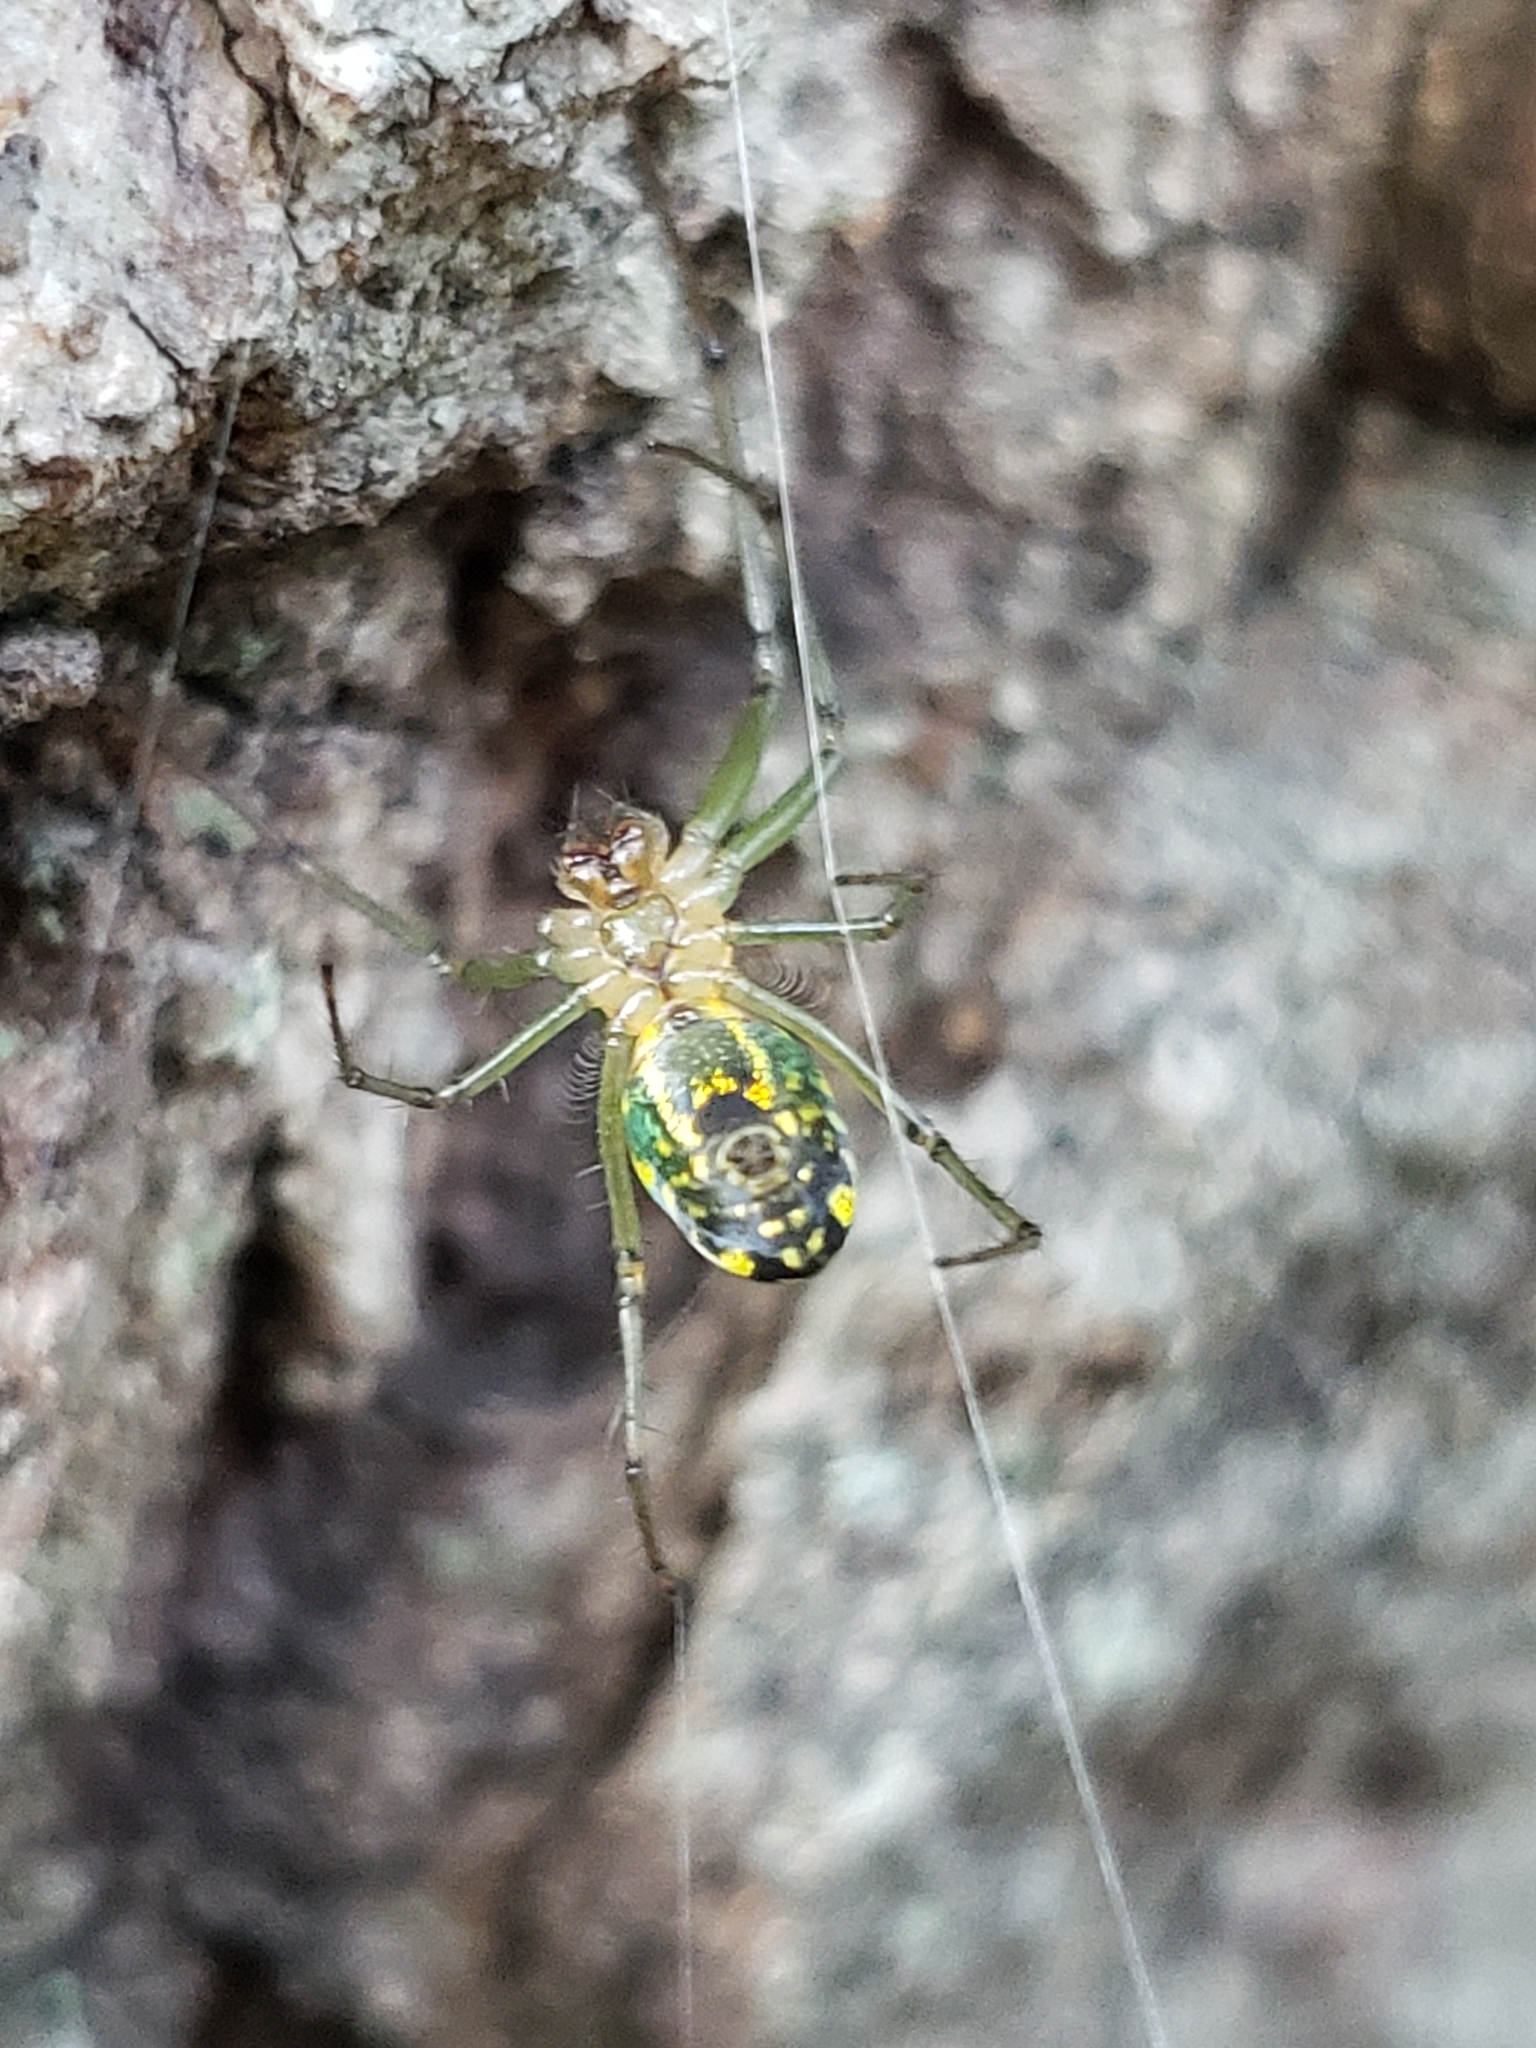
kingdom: Animalia
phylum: Arthropoda
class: Arachnida
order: Araneae
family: Tetragnathidae
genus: Leucauge
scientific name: Leucauge venusta
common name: Longjawed orb weavers
